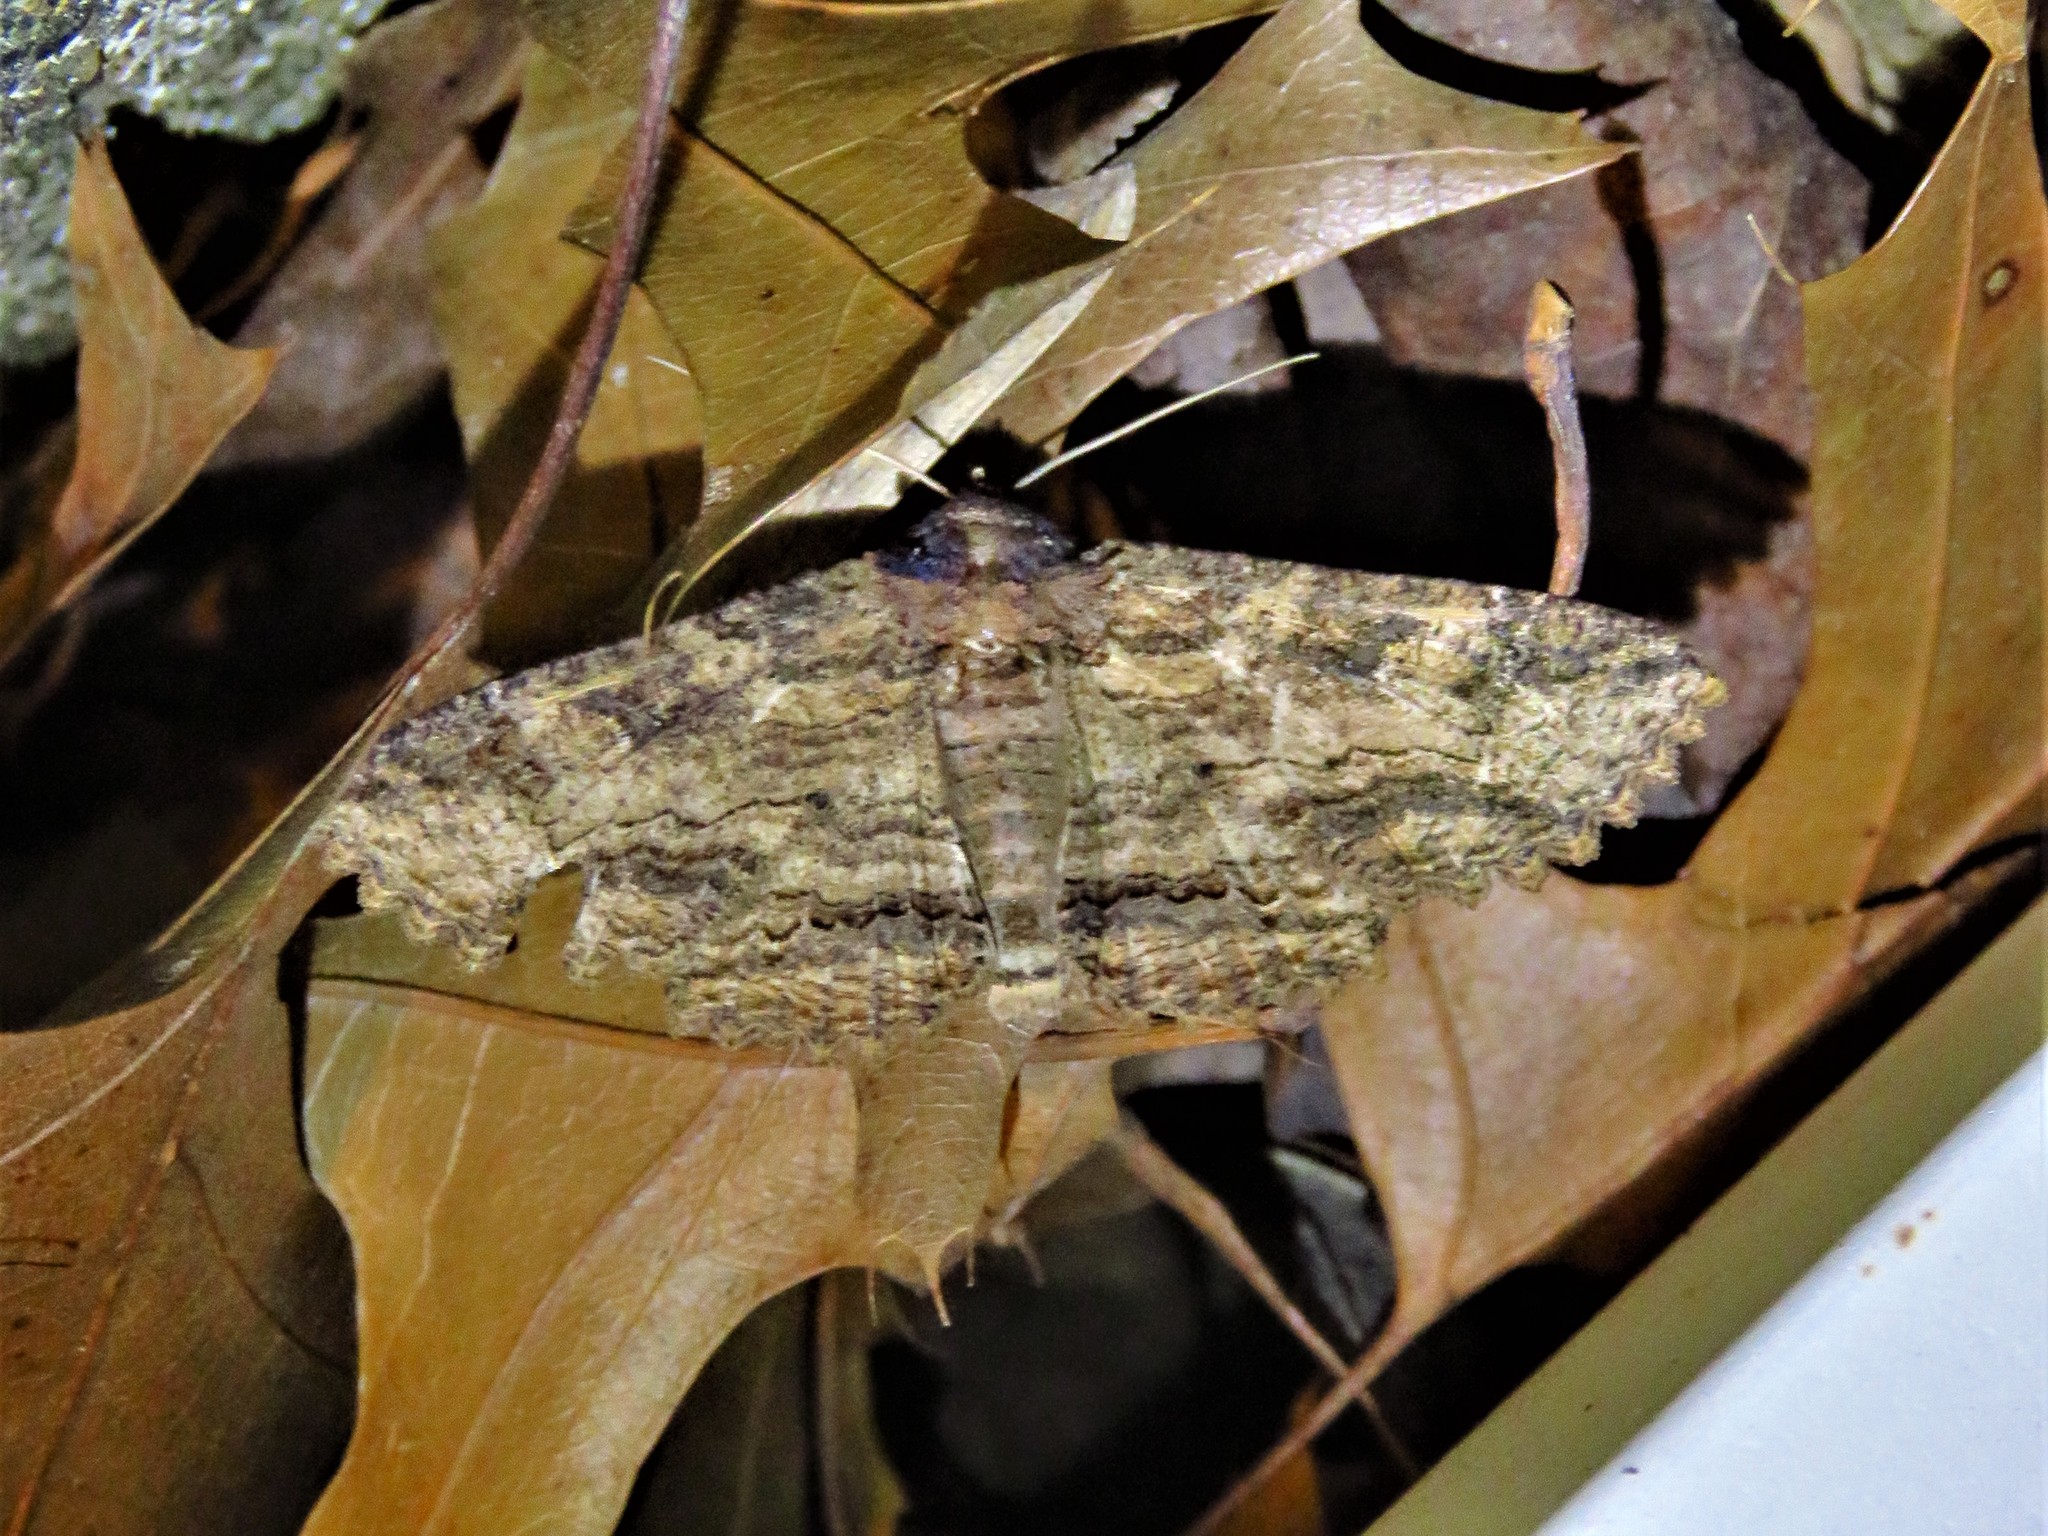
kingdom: Animalia
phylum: Arthropoda
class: Insecta
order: Lepidoptera
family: Erebidae
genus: Zale
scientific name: Zale lunata
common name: Lunate zale moth
